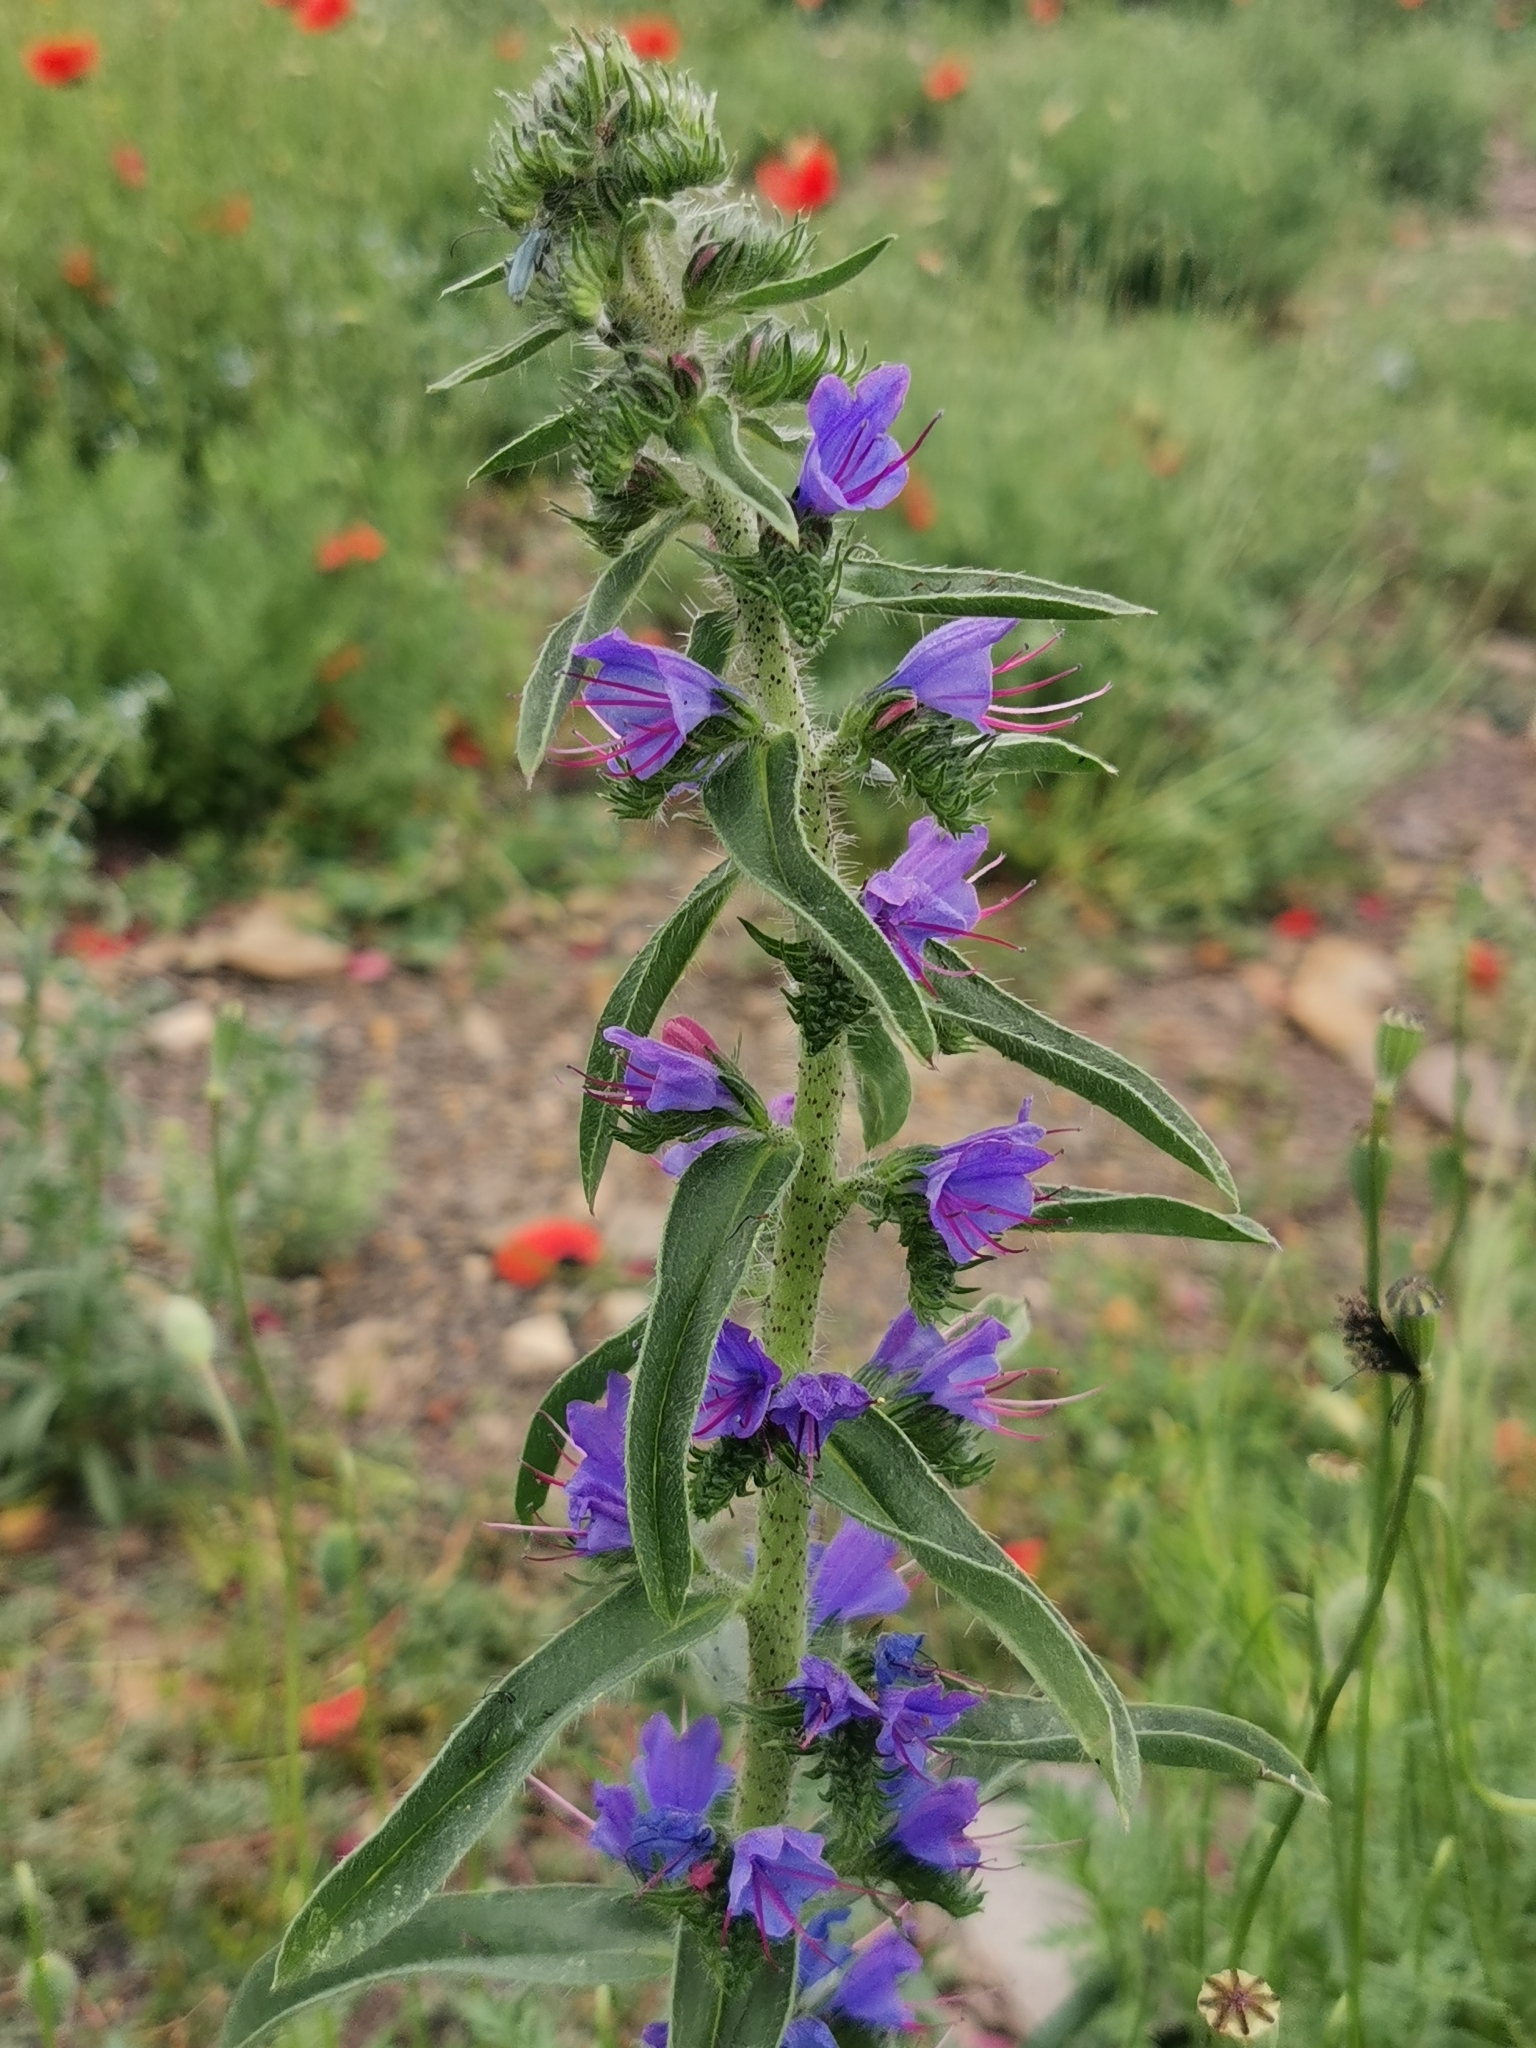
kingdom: Plantae
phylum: Tracheophyta
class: Magnoliopsida
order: Boraginales
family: Boraginaceae
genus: Echium
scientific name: Echium vulgare
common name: Common viper's bugloss
